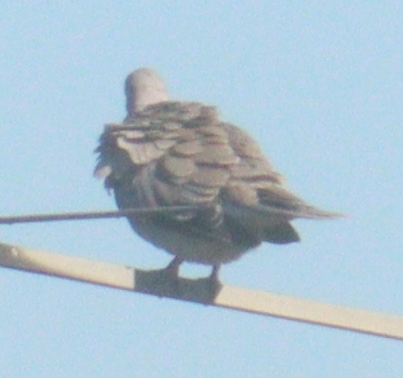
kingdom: Animalia
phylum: Chordata
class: Aves
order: Columbiformes
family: Columbidae
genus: Streptopelia
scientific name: Streptopelia decaocto
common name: Eurasian collared dove
